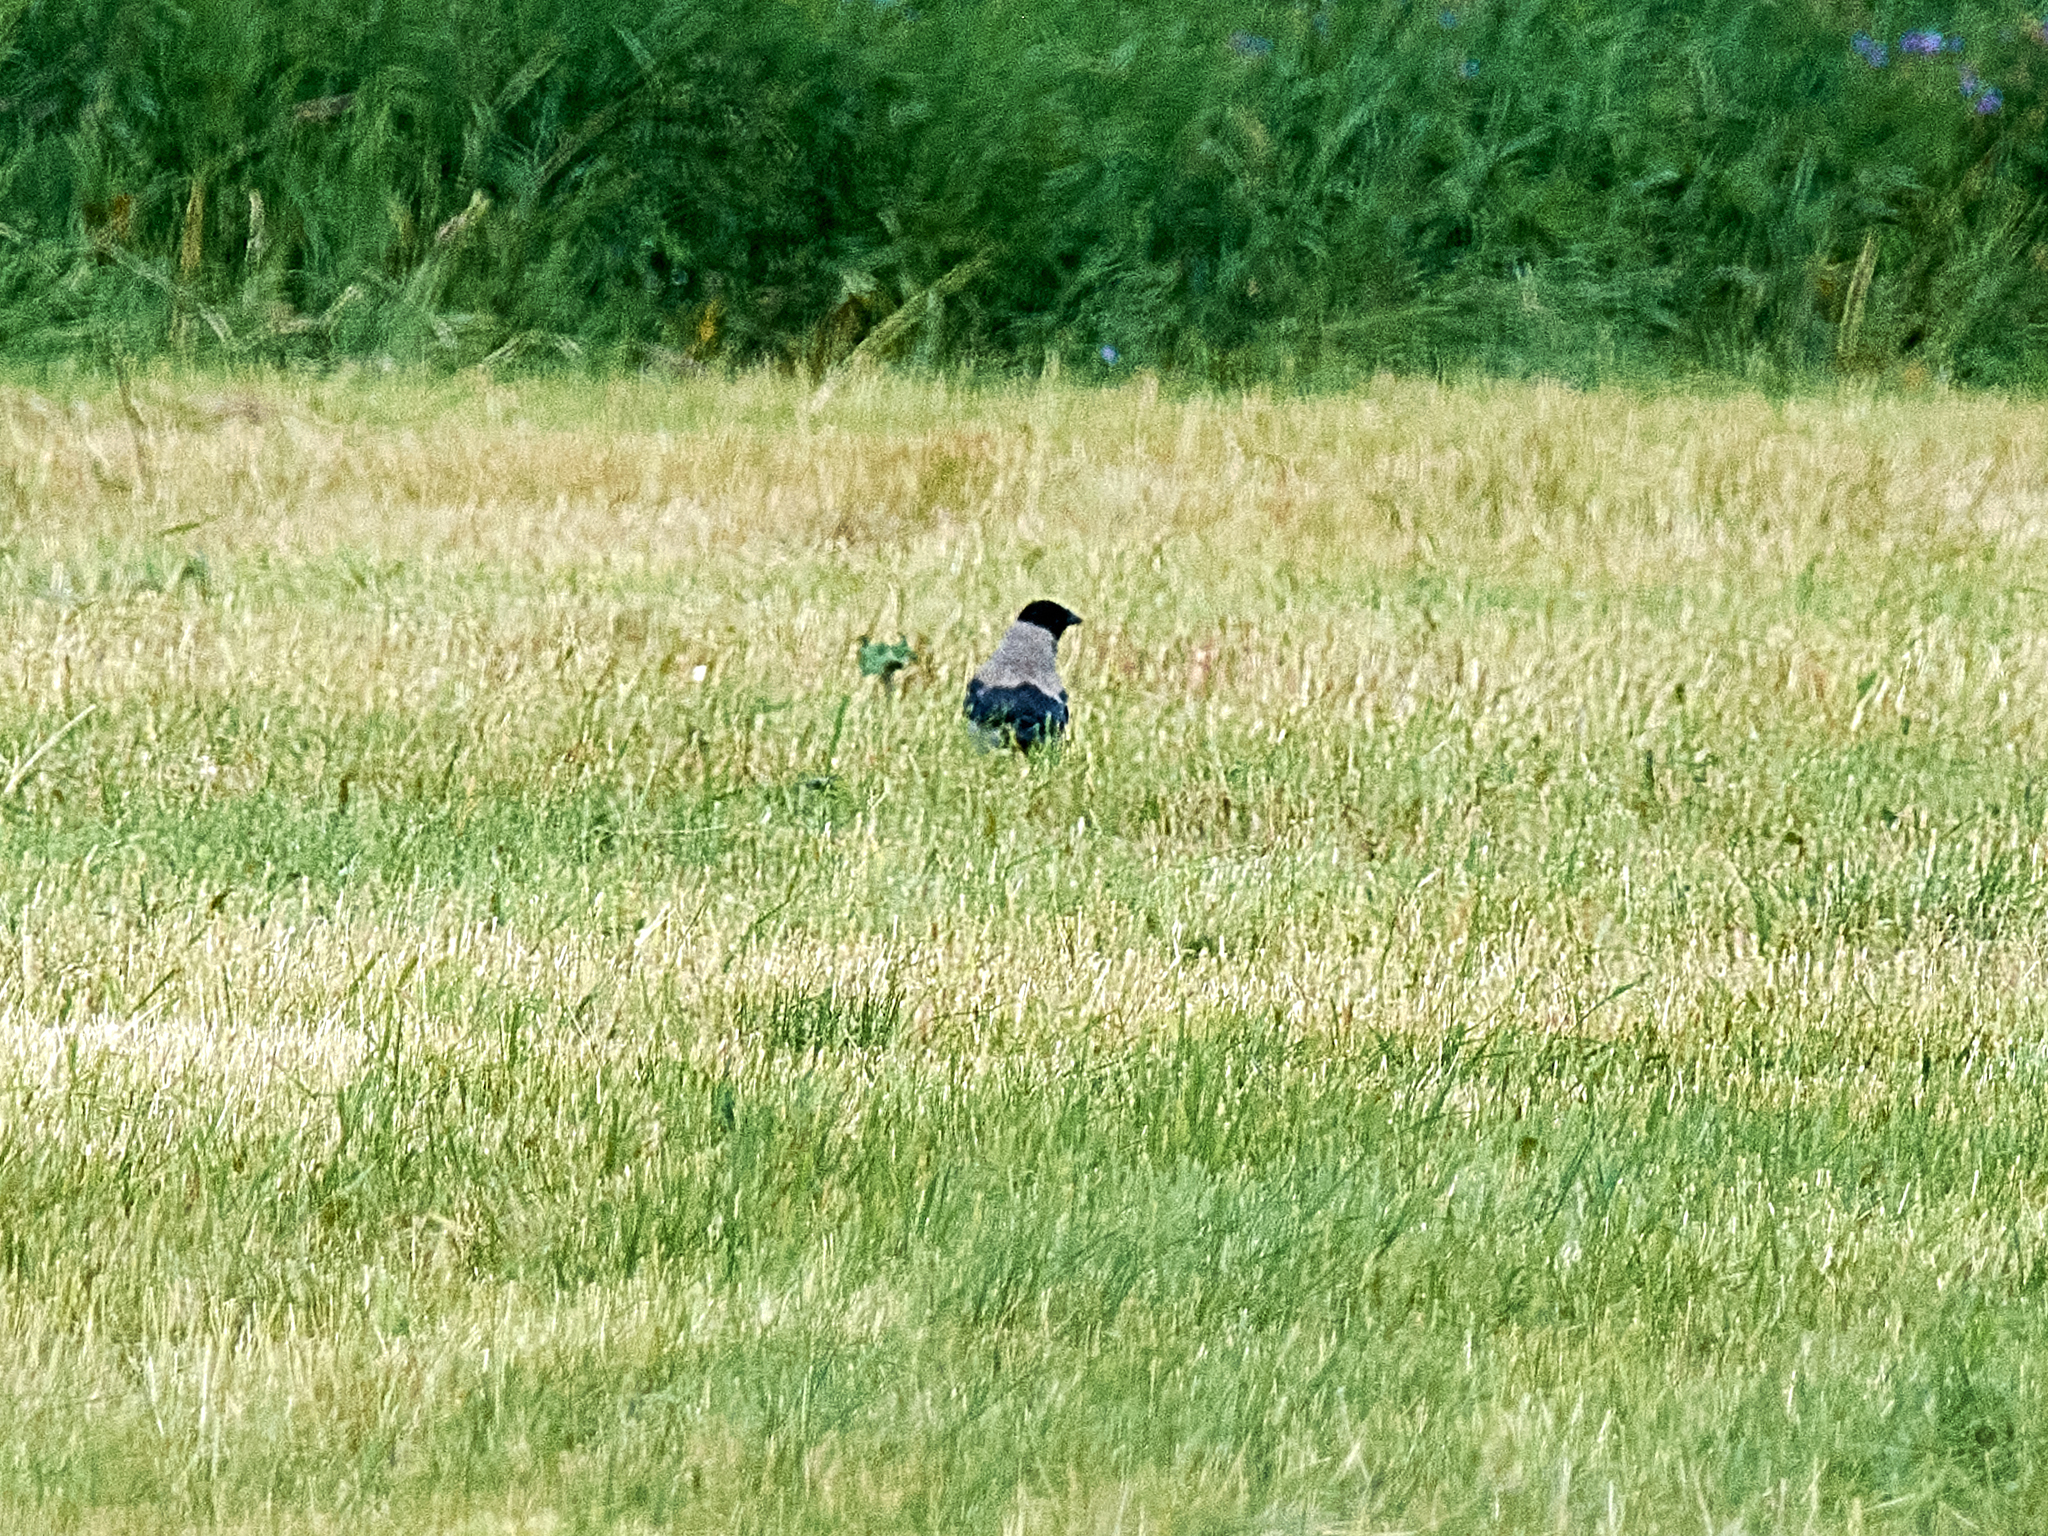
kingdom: Animalia
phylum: Chordata
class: Aves
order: Passeriformes
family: Corvidae
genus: Corvus
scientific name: Corvus cornix
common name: Hooded crow
